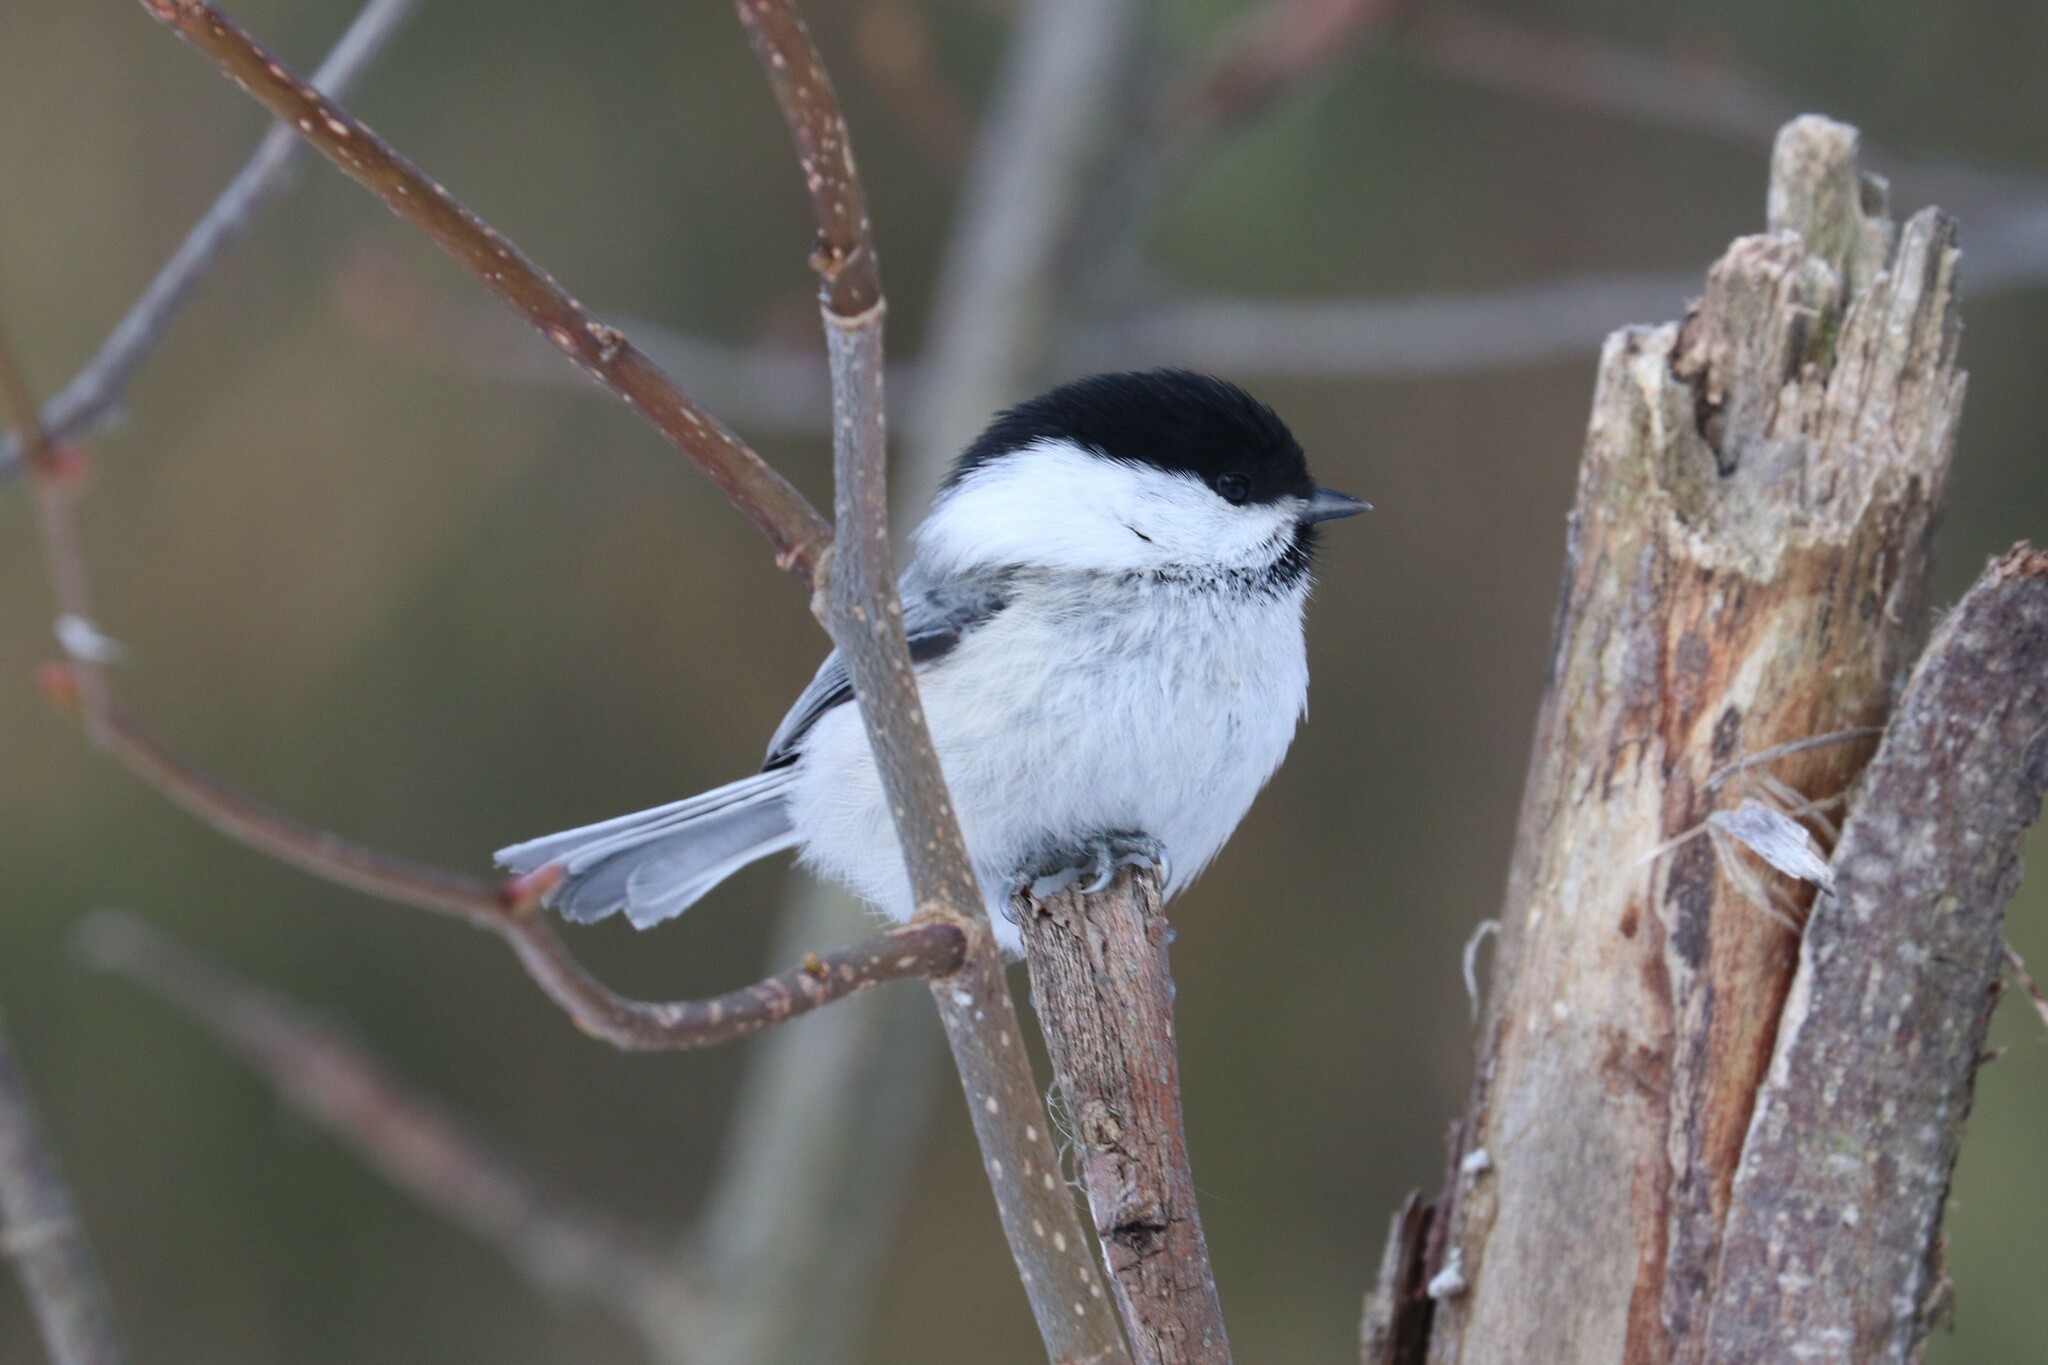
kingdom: Animalia
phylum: Chordata
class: Aves
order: Passeriformes
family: Paridae
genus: Poecile
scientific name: Poecile montanus
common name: Willow tit
